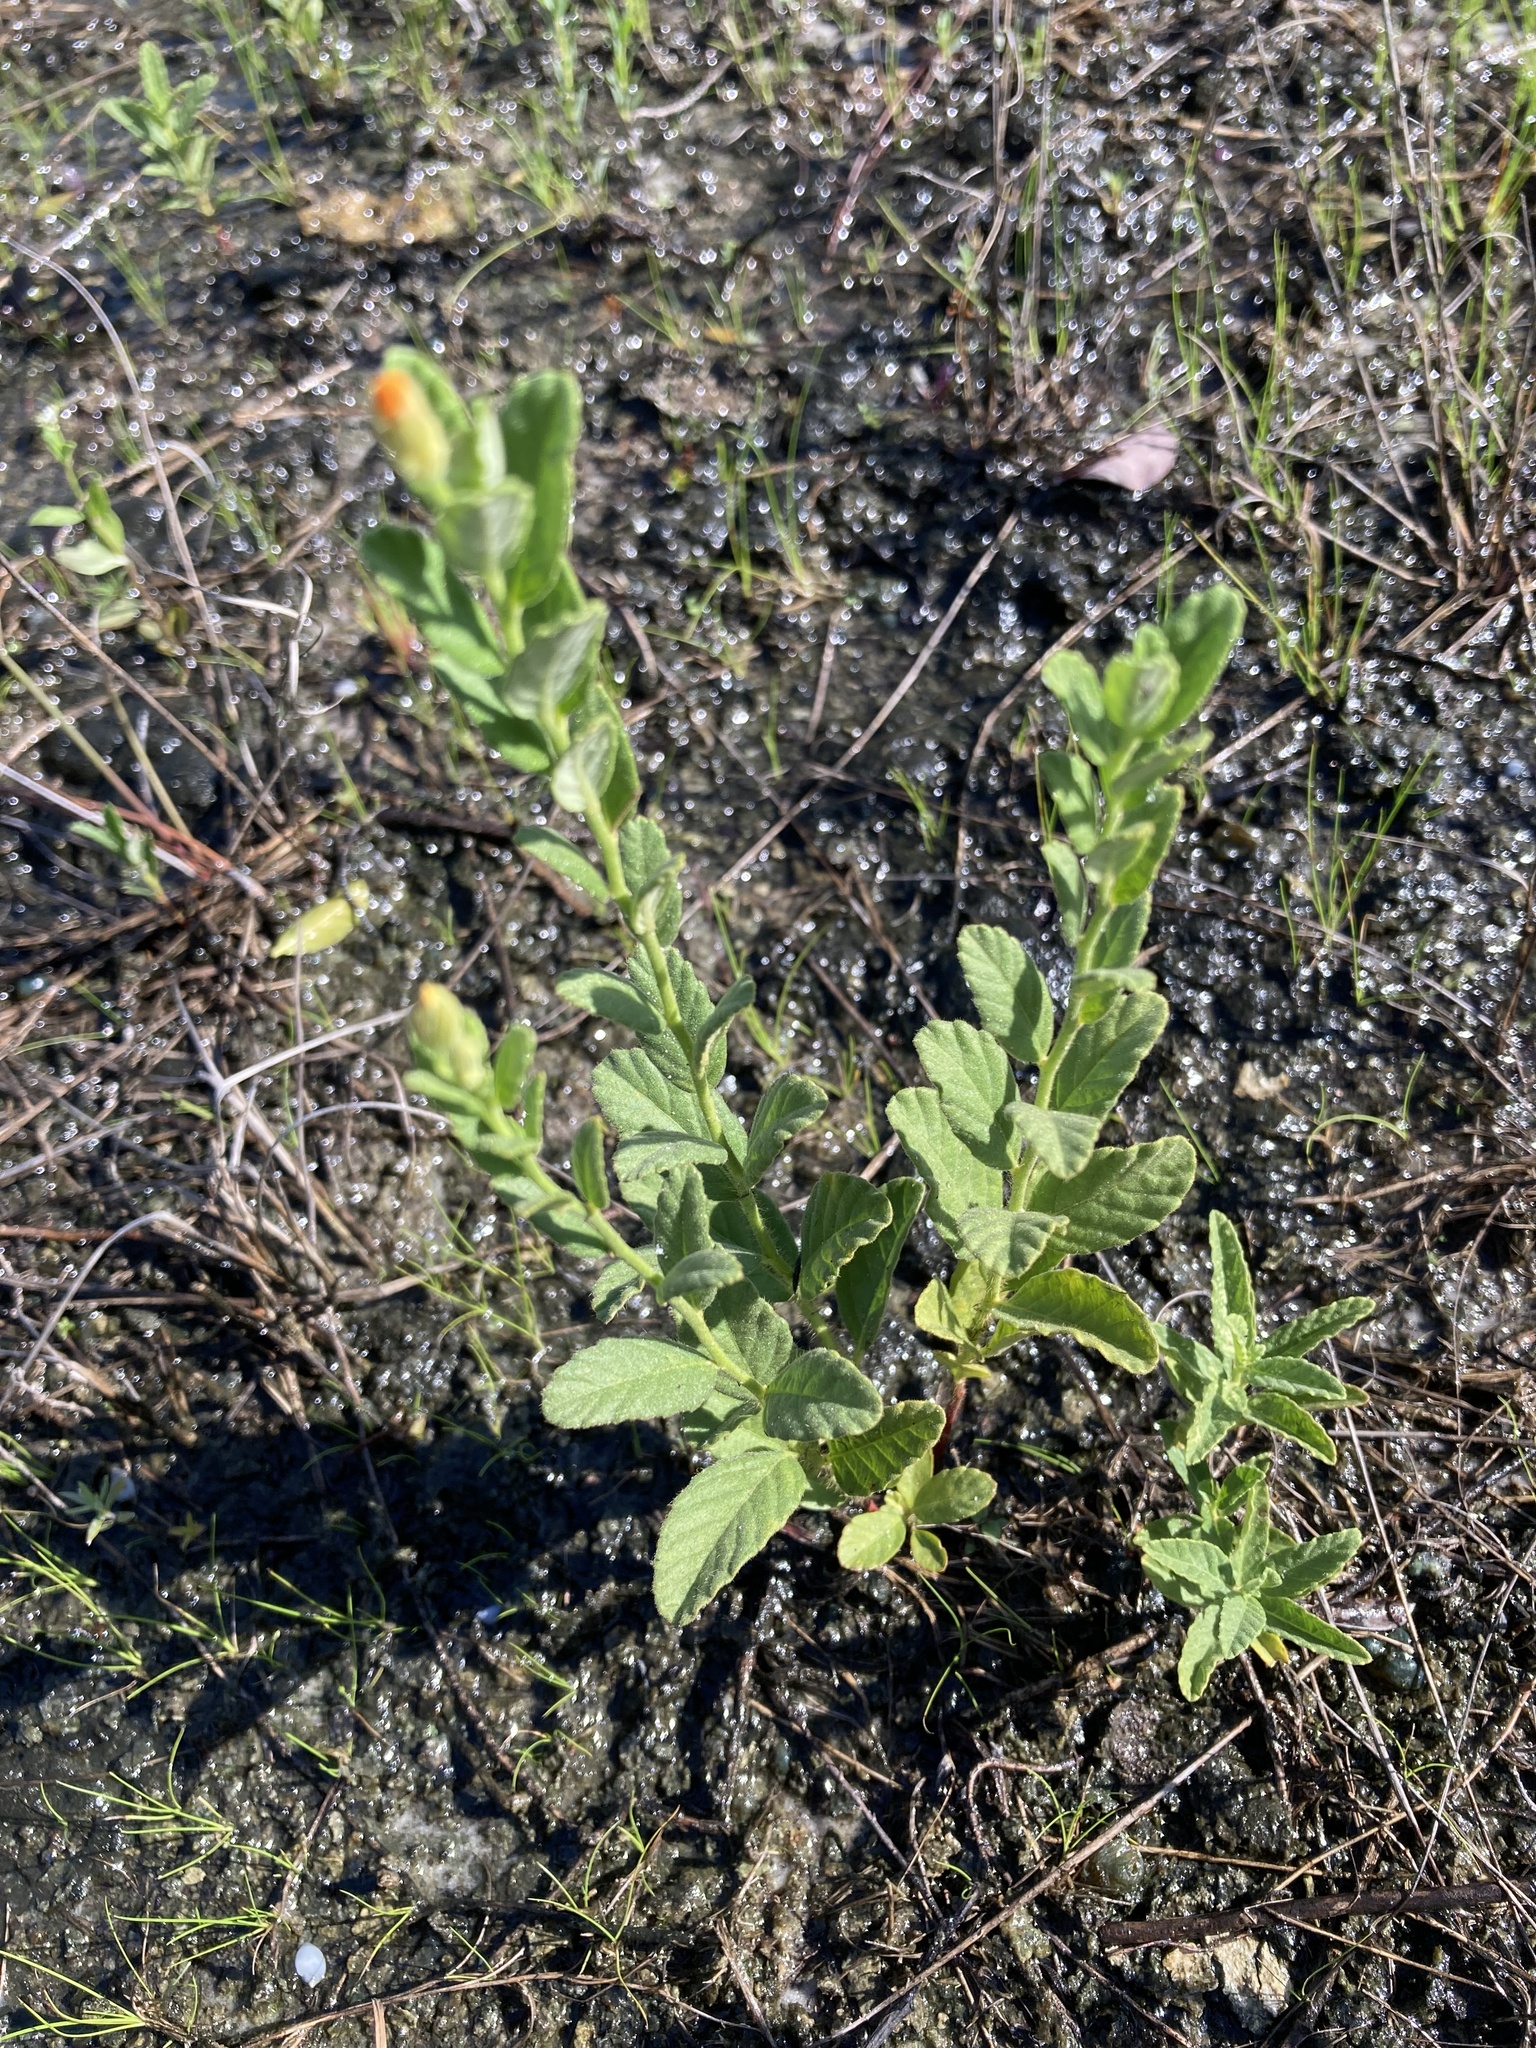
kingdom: Plantae
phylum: Tracheophyta
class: Magnoliopsida
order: Malpighiales
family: Turneraceae
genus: Piriqueta
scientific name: Piriqueta cistoides
